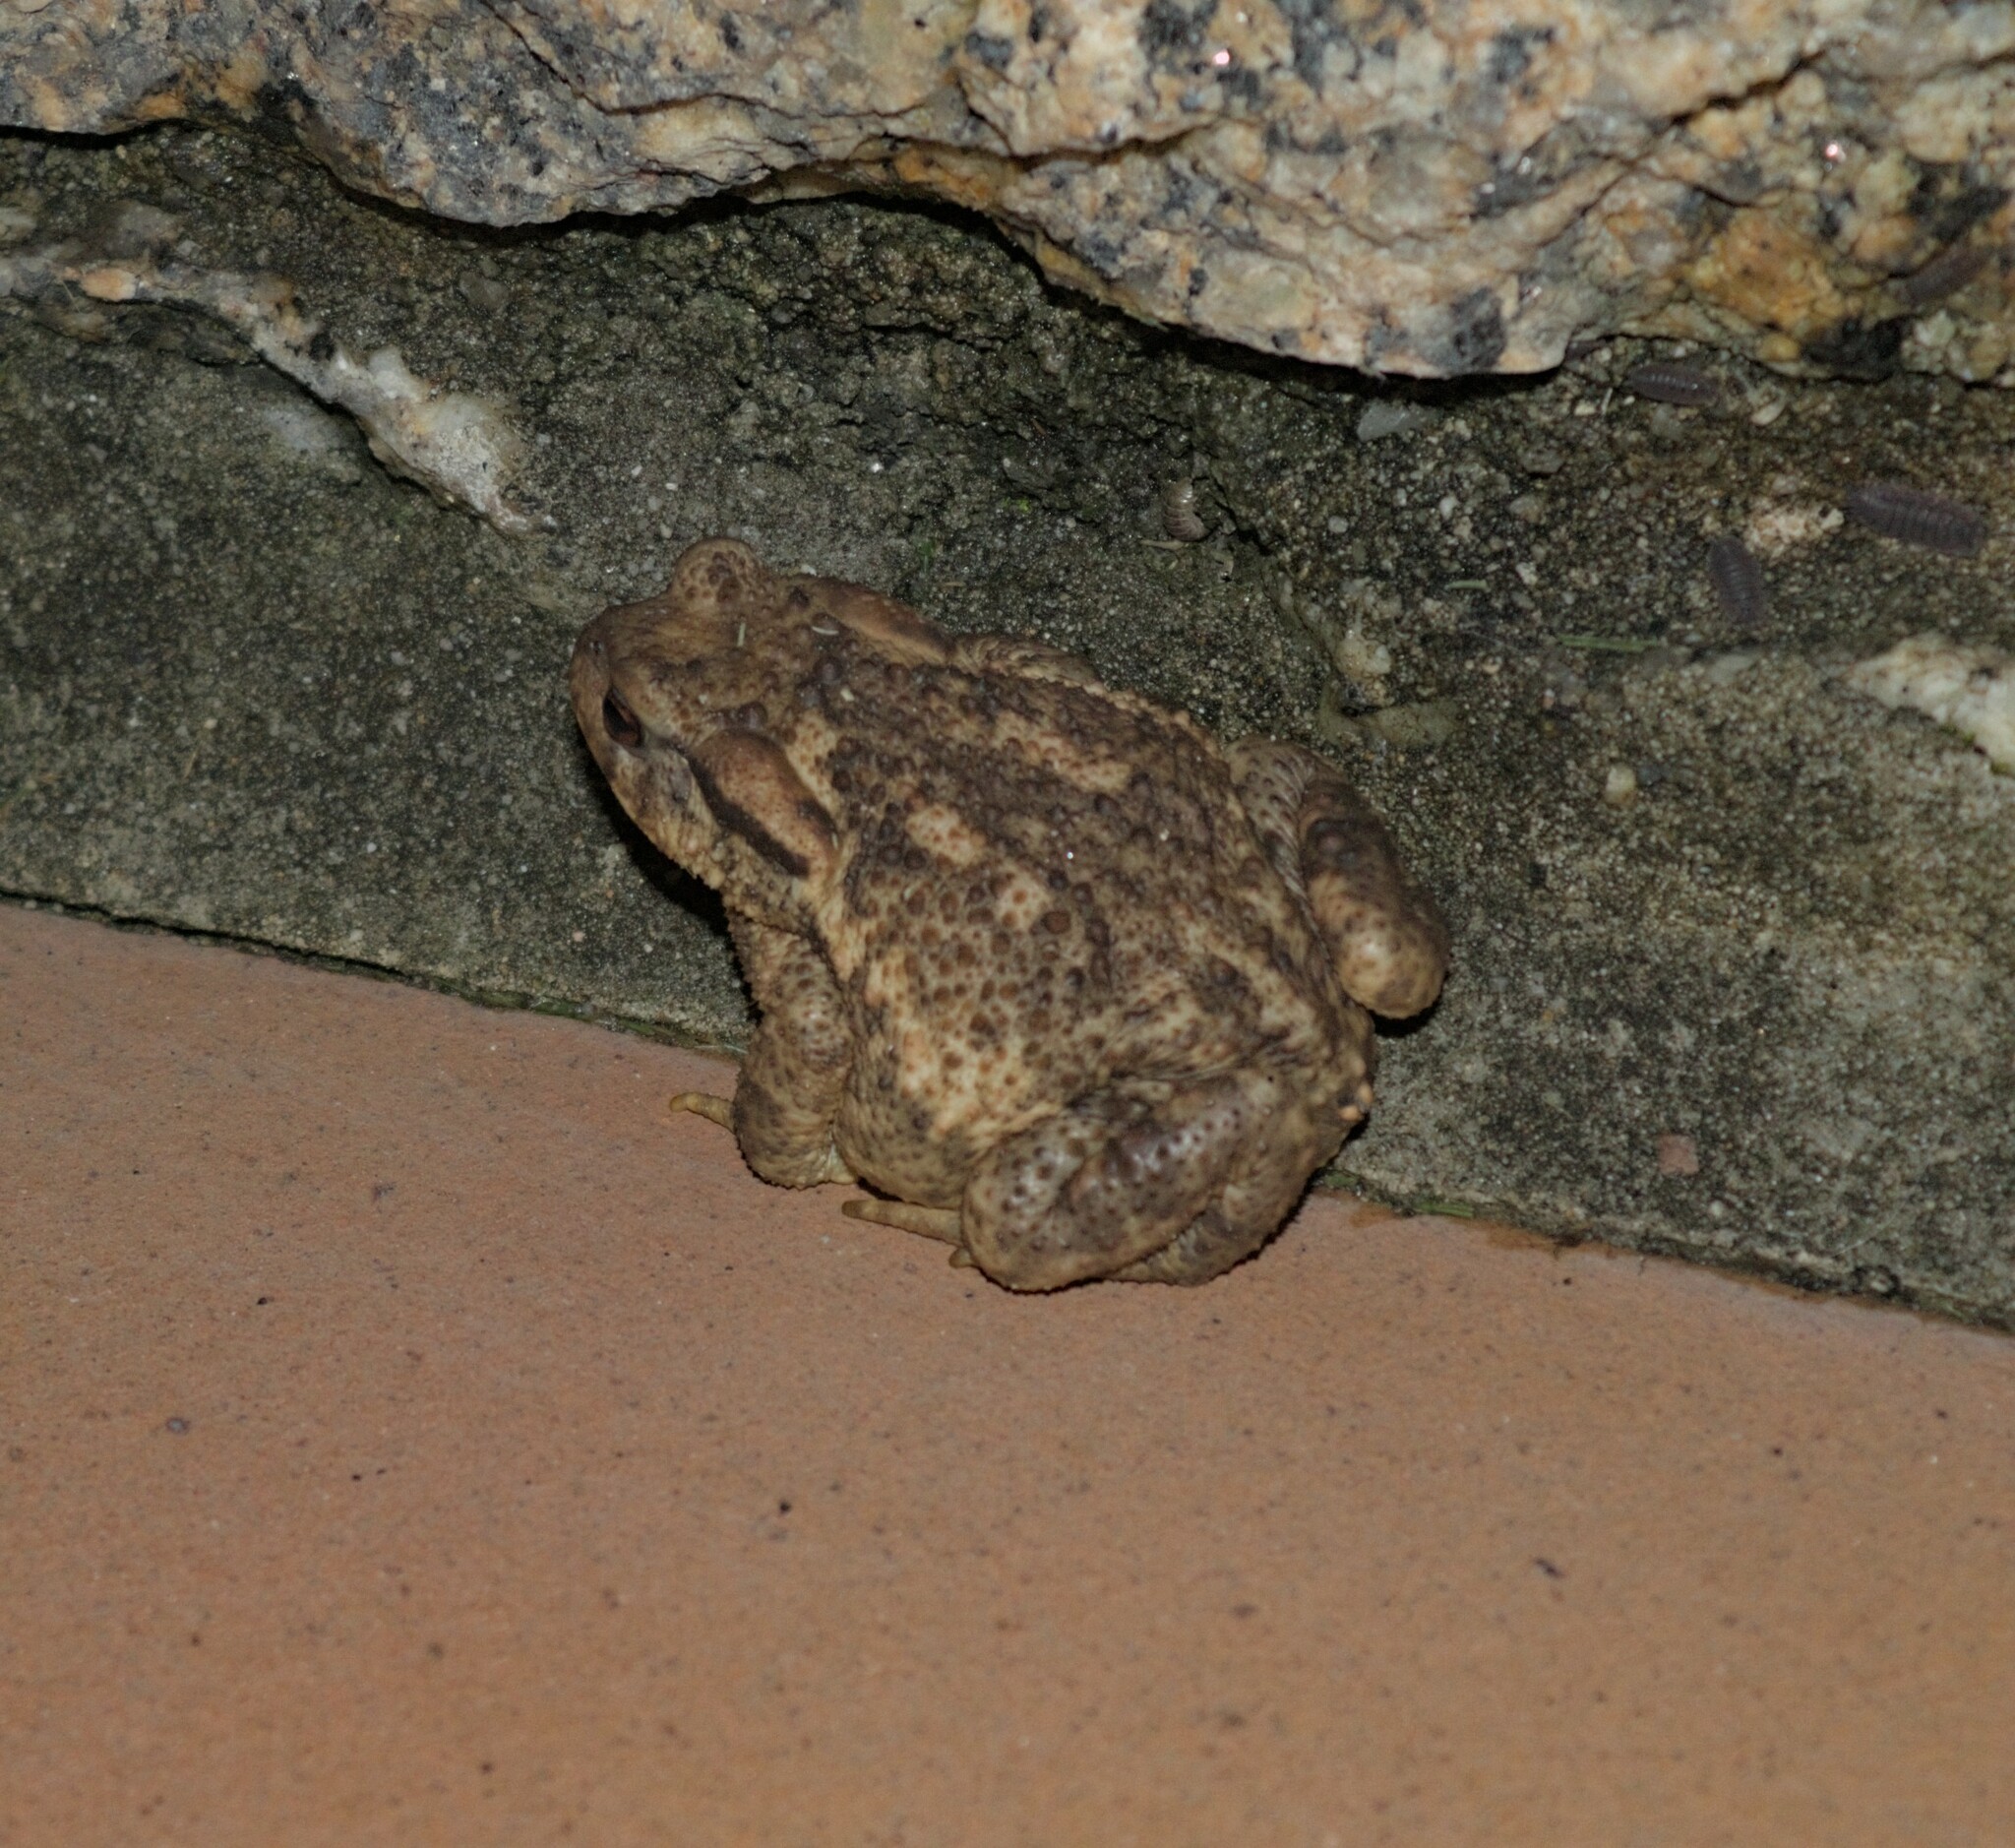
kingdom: Animalia
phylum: Chordata
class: Amphibia
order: Anura
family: Bufonidae
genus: Bufo
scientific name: Bufo spinosus
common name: Western common toad
